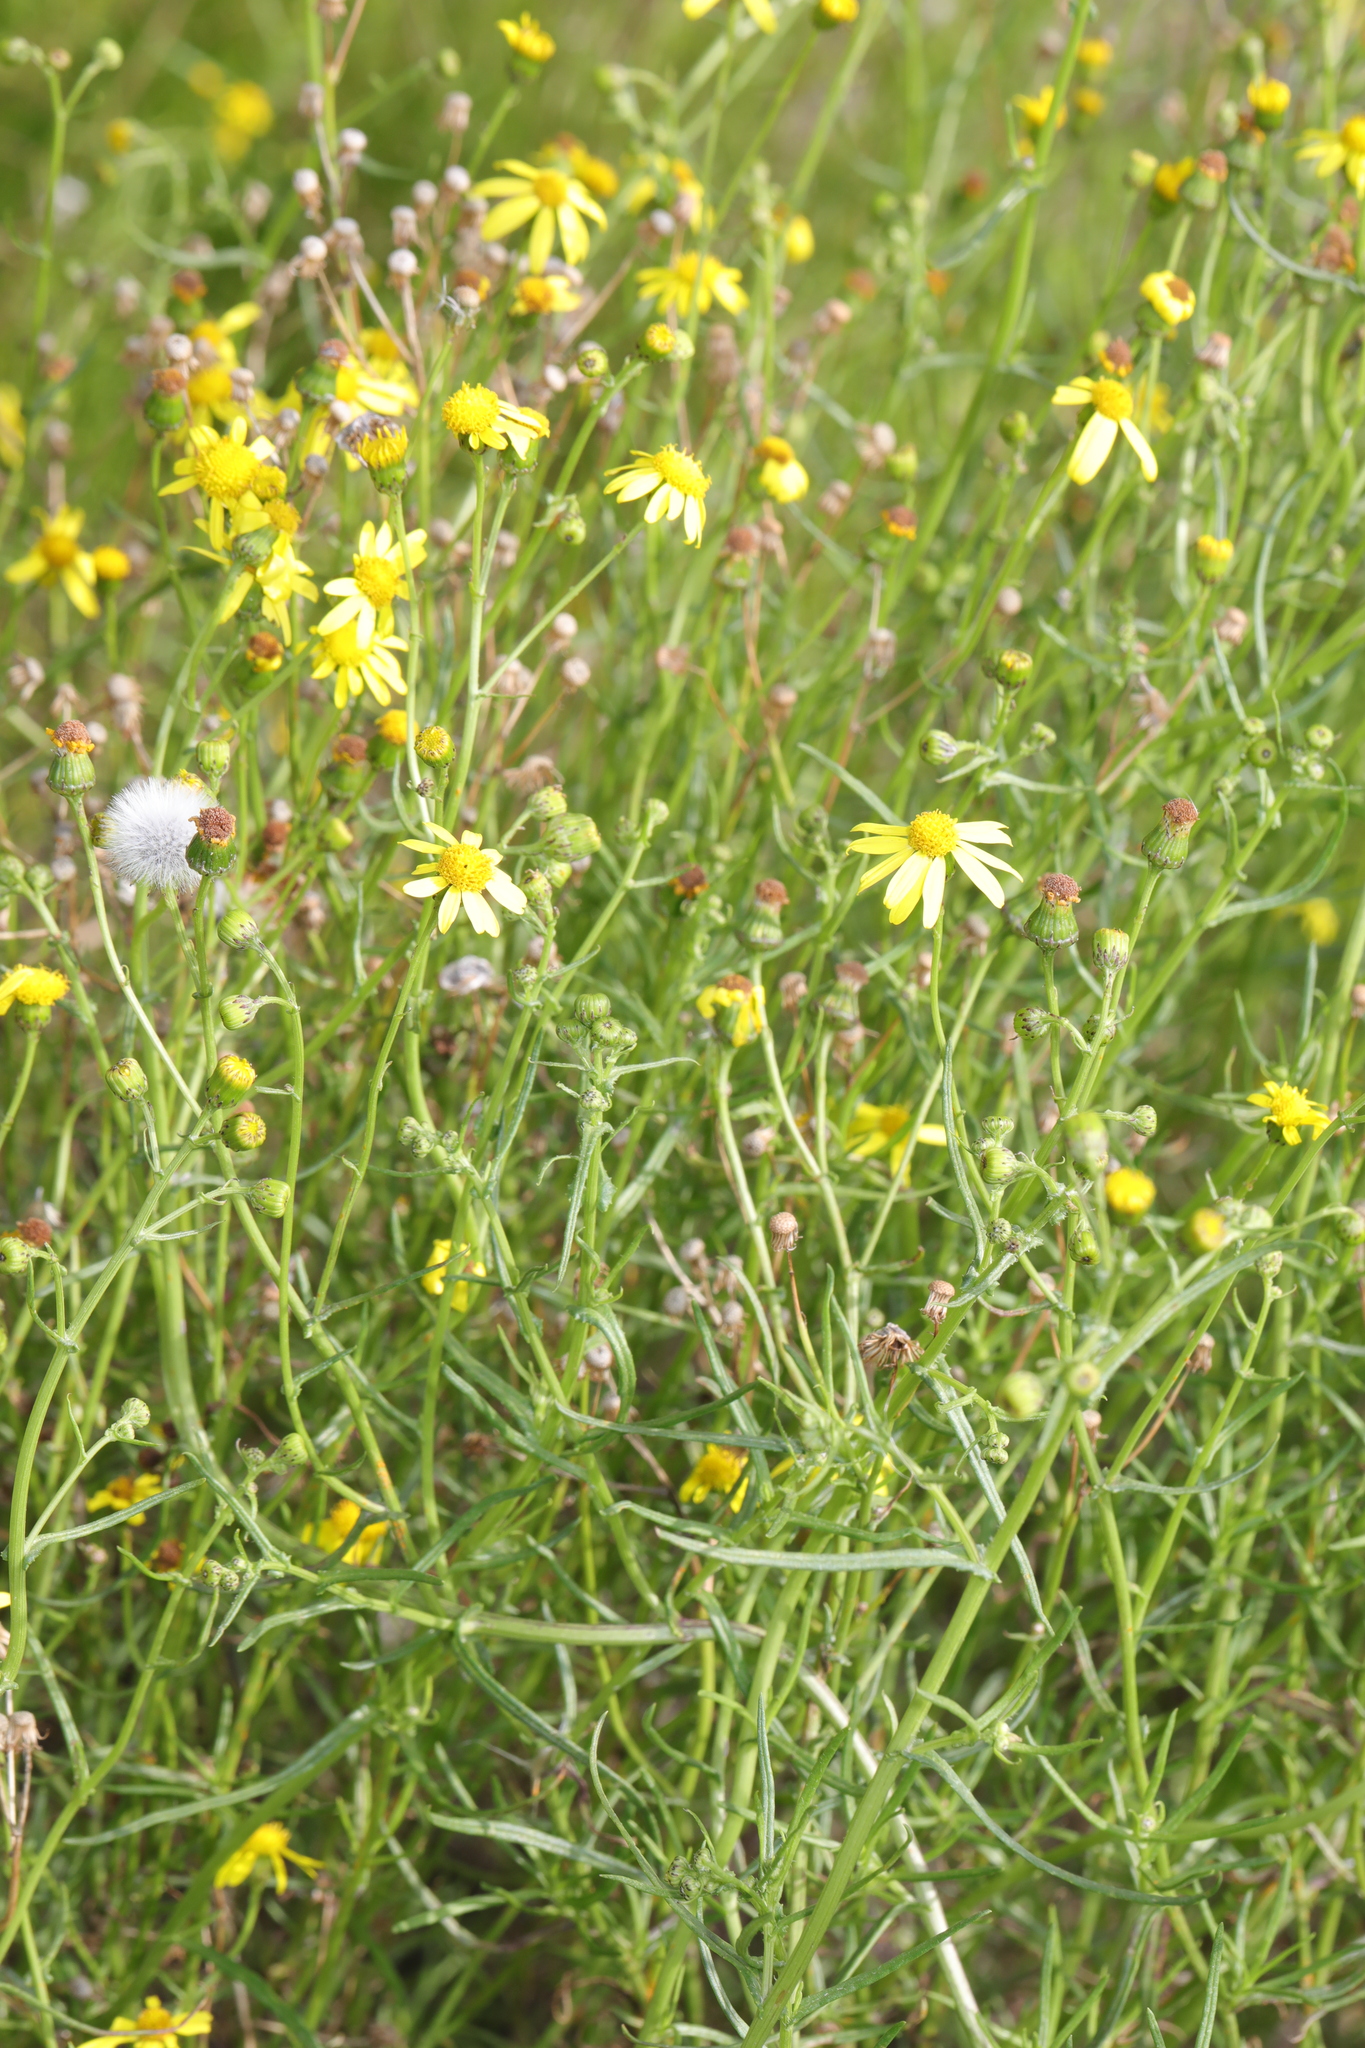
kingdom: Plantae
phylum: Tracheophyta
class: Magnoliopsida
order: Asterales
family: Asteraceae
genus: Senecio
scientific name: Senecio inaequidens
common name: Narrow-leaved ragwort
